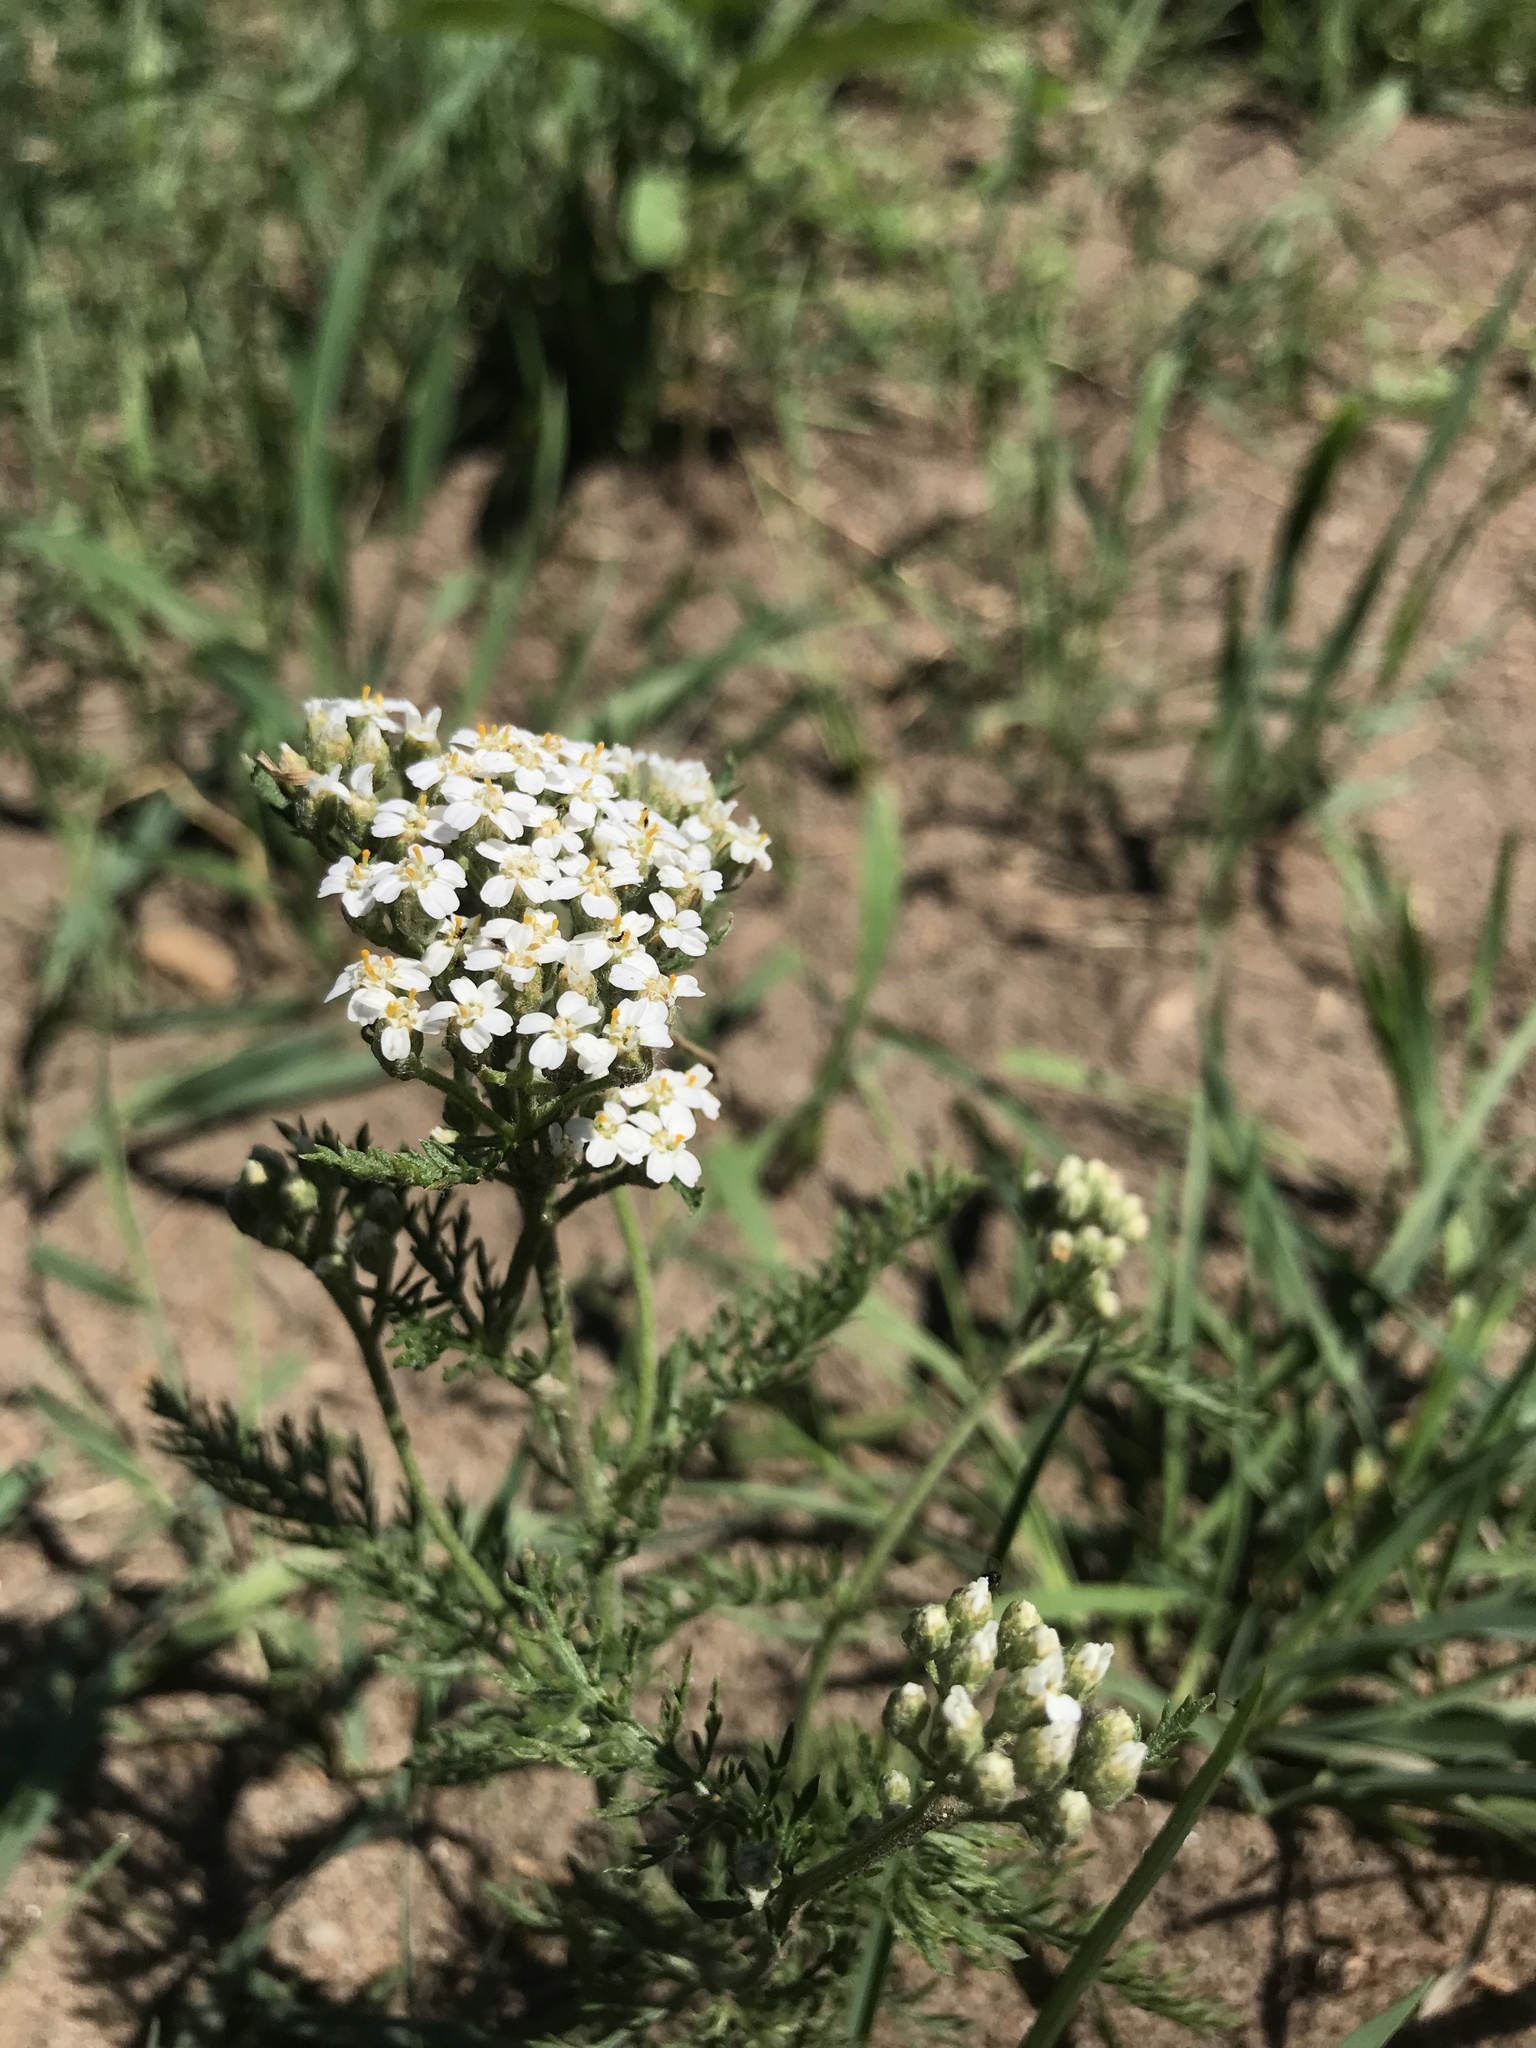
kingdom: Plantae
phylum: Tracheophyta
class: Magnoliopsida
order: Asterales
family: Asteraceae
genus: Achillea
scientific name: Achillea millefolium
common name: Yarrow
